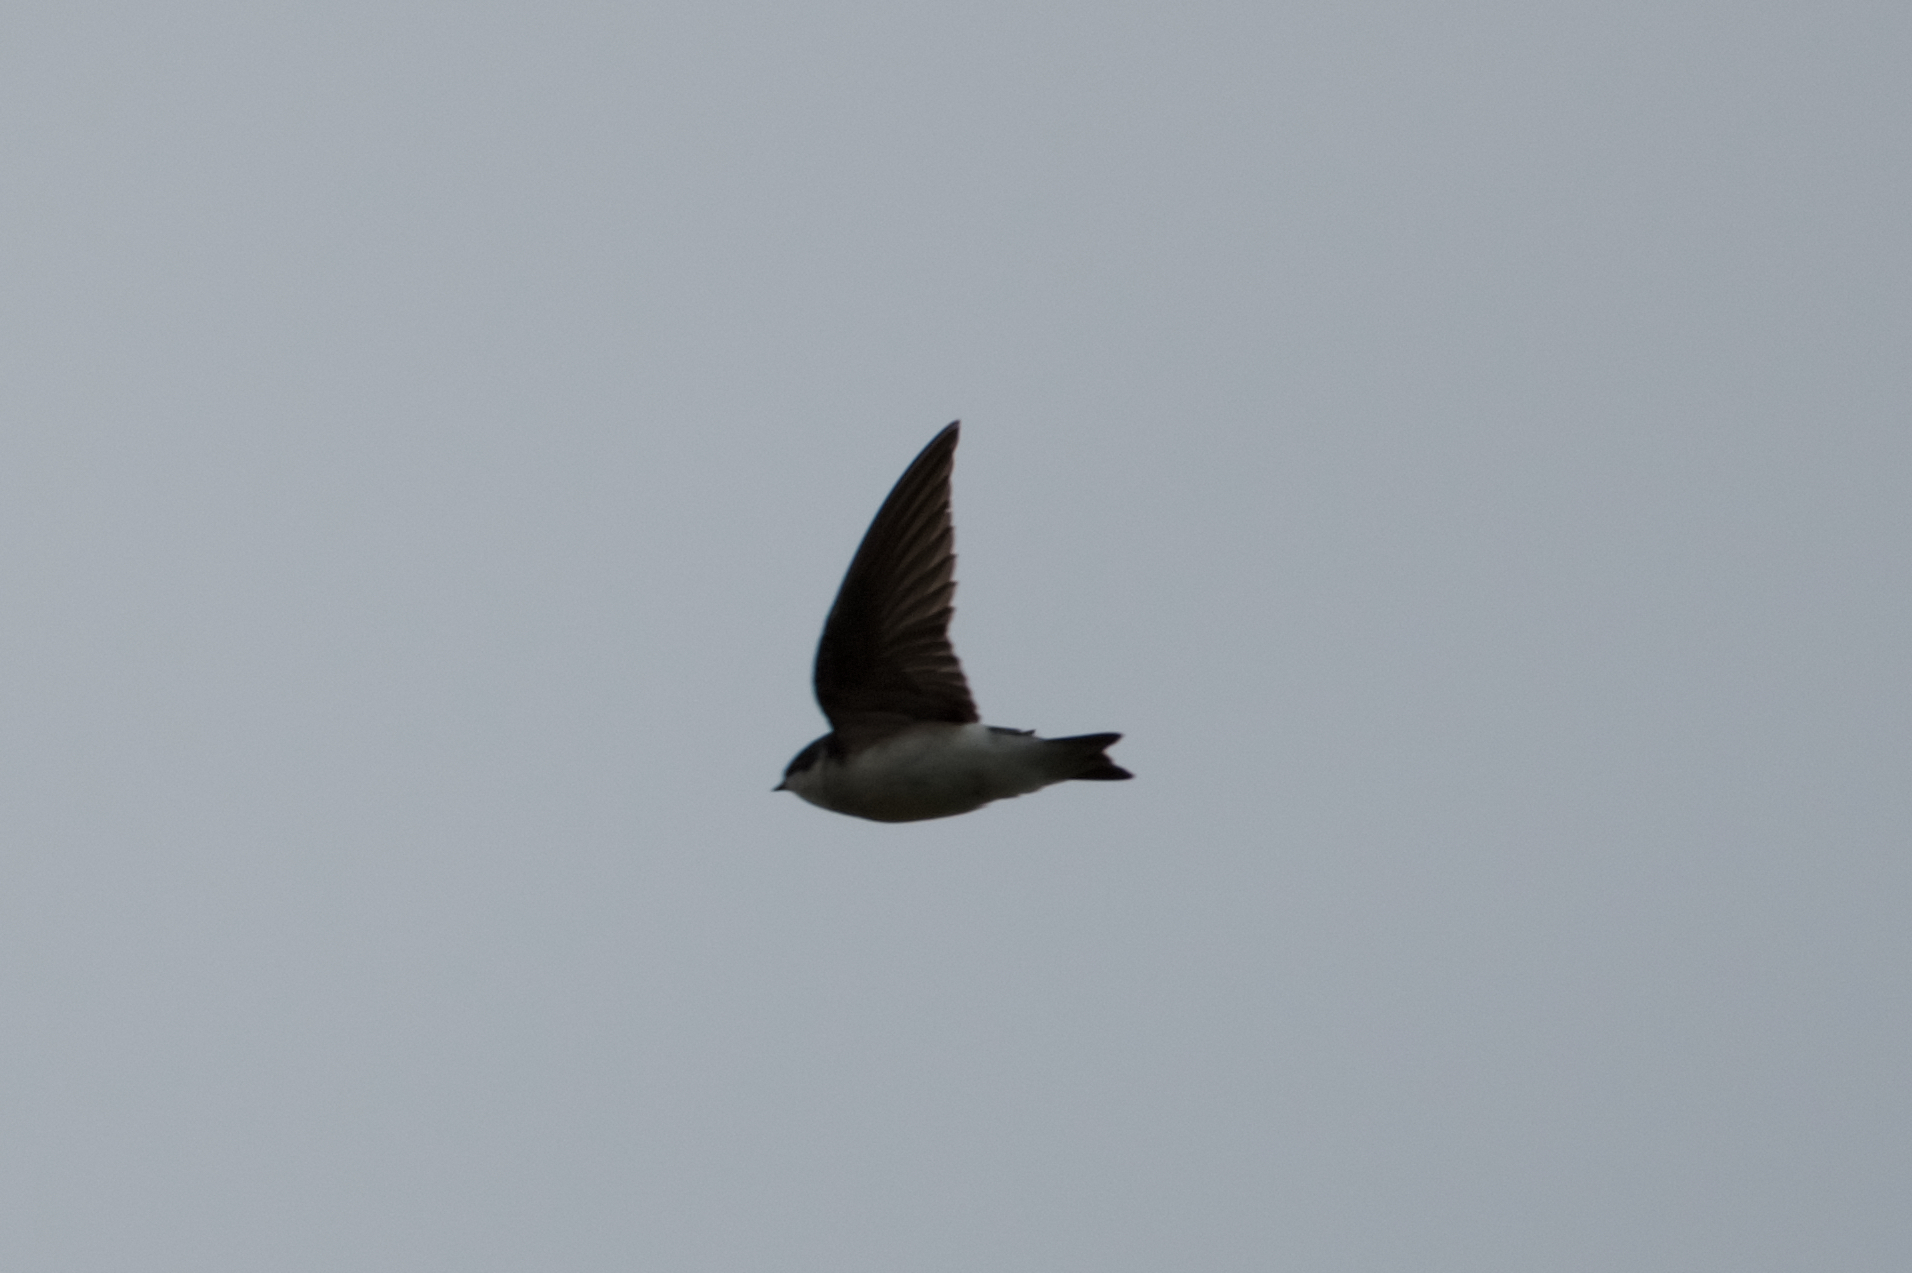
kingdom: Animalia
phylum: Chordata
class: Aves
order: Passeriformes
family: Hirundinidae
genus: Tachycineta
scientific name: Tachycineta bicolor
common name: Tree swallow
